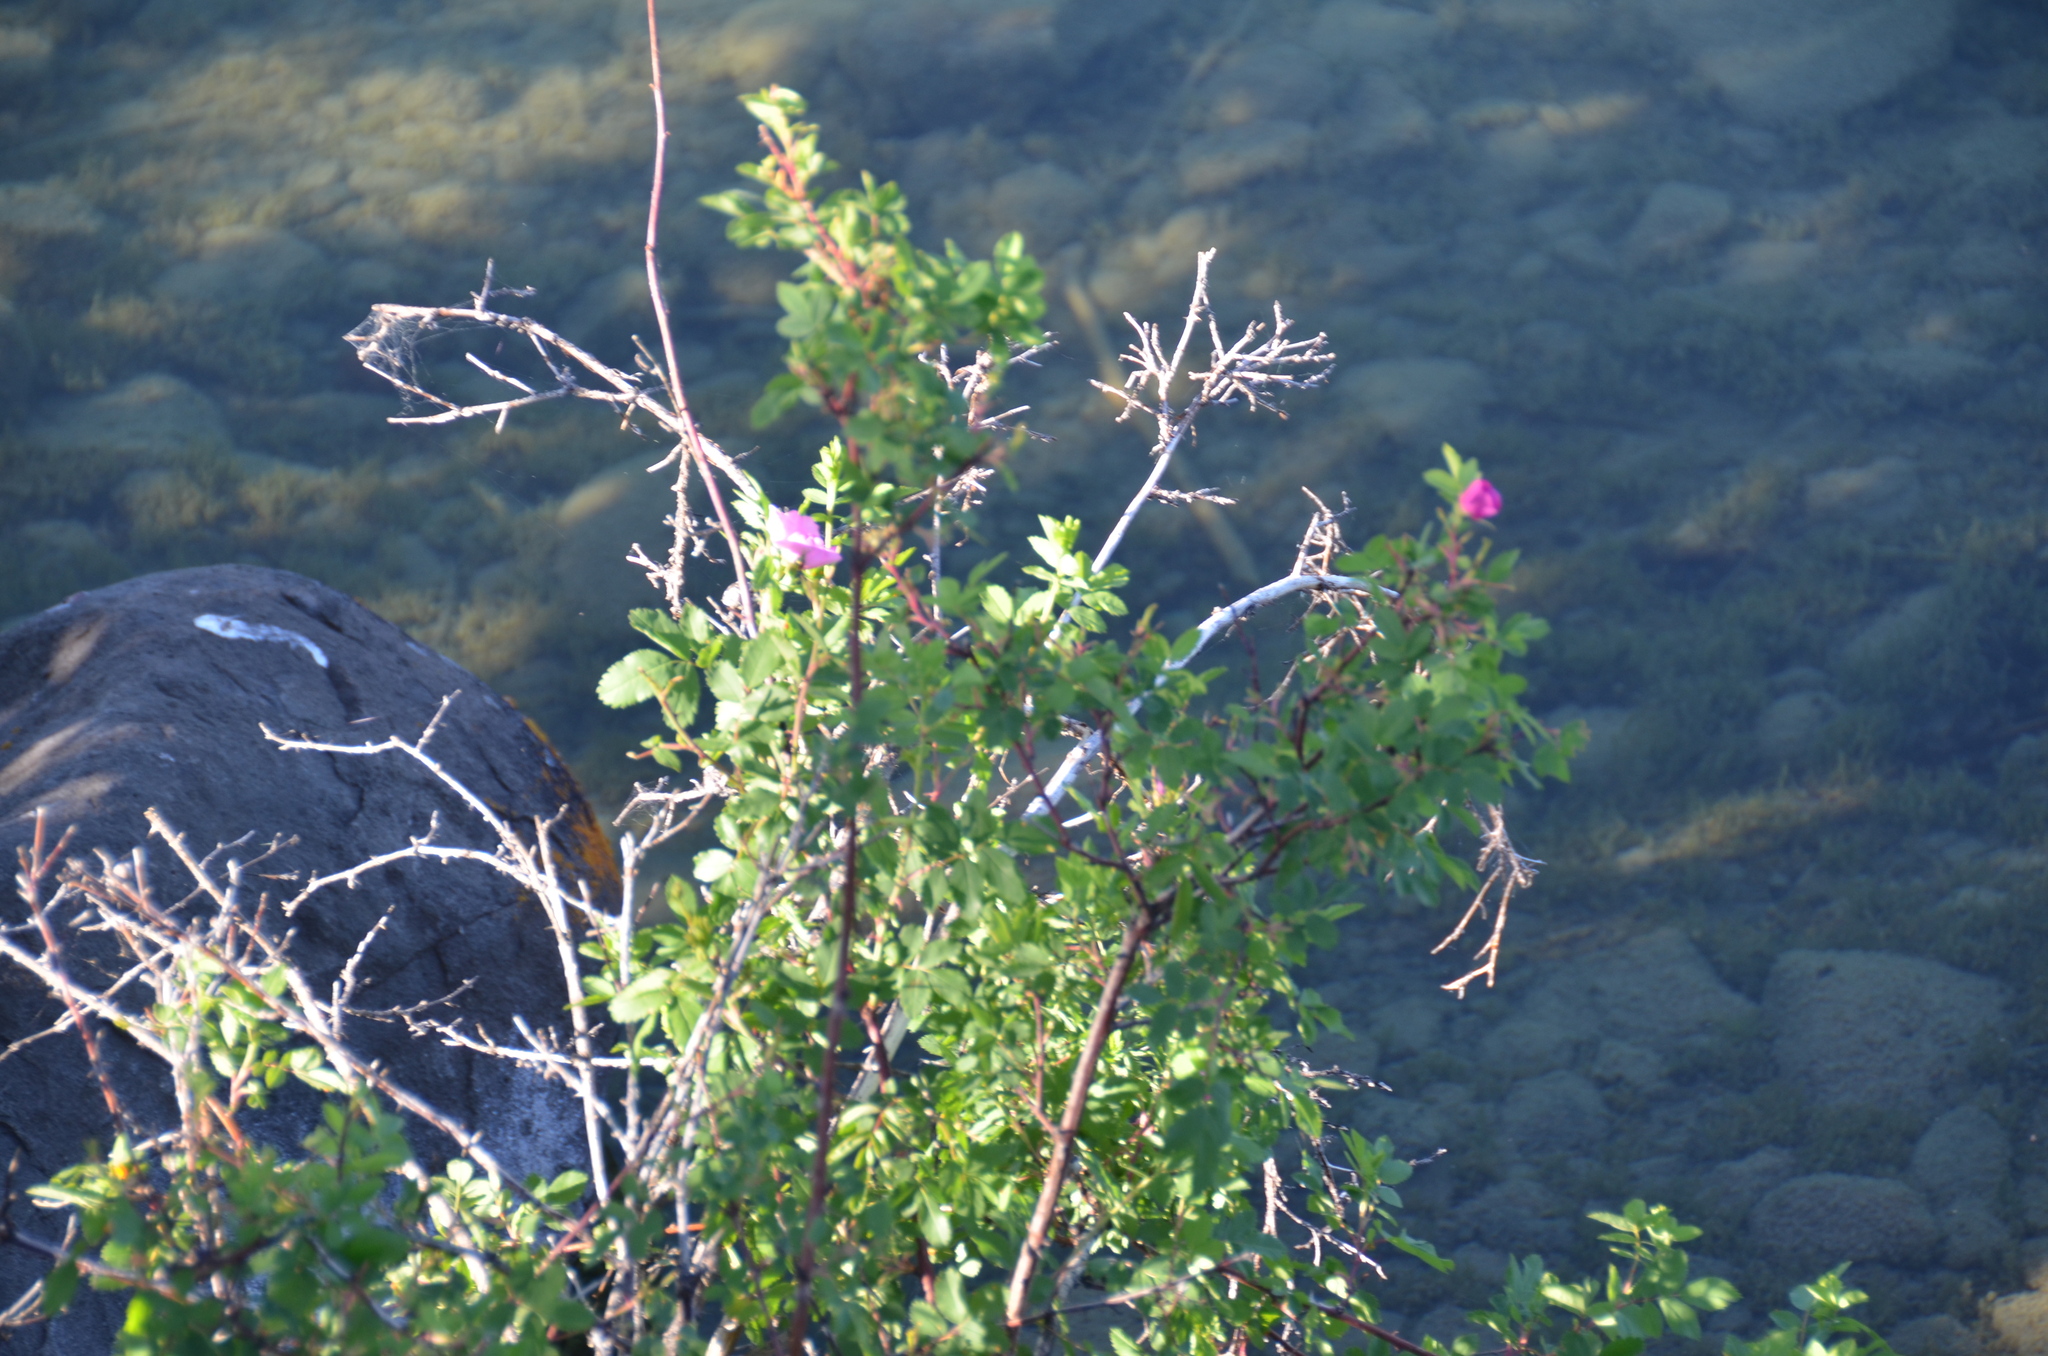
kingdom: Plantae
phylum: Tracheophyta
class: Magnoliopsida
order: Rosales
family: Rosaceae
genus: Rosa
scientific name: Rosa acicularis
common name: Prickly rose
